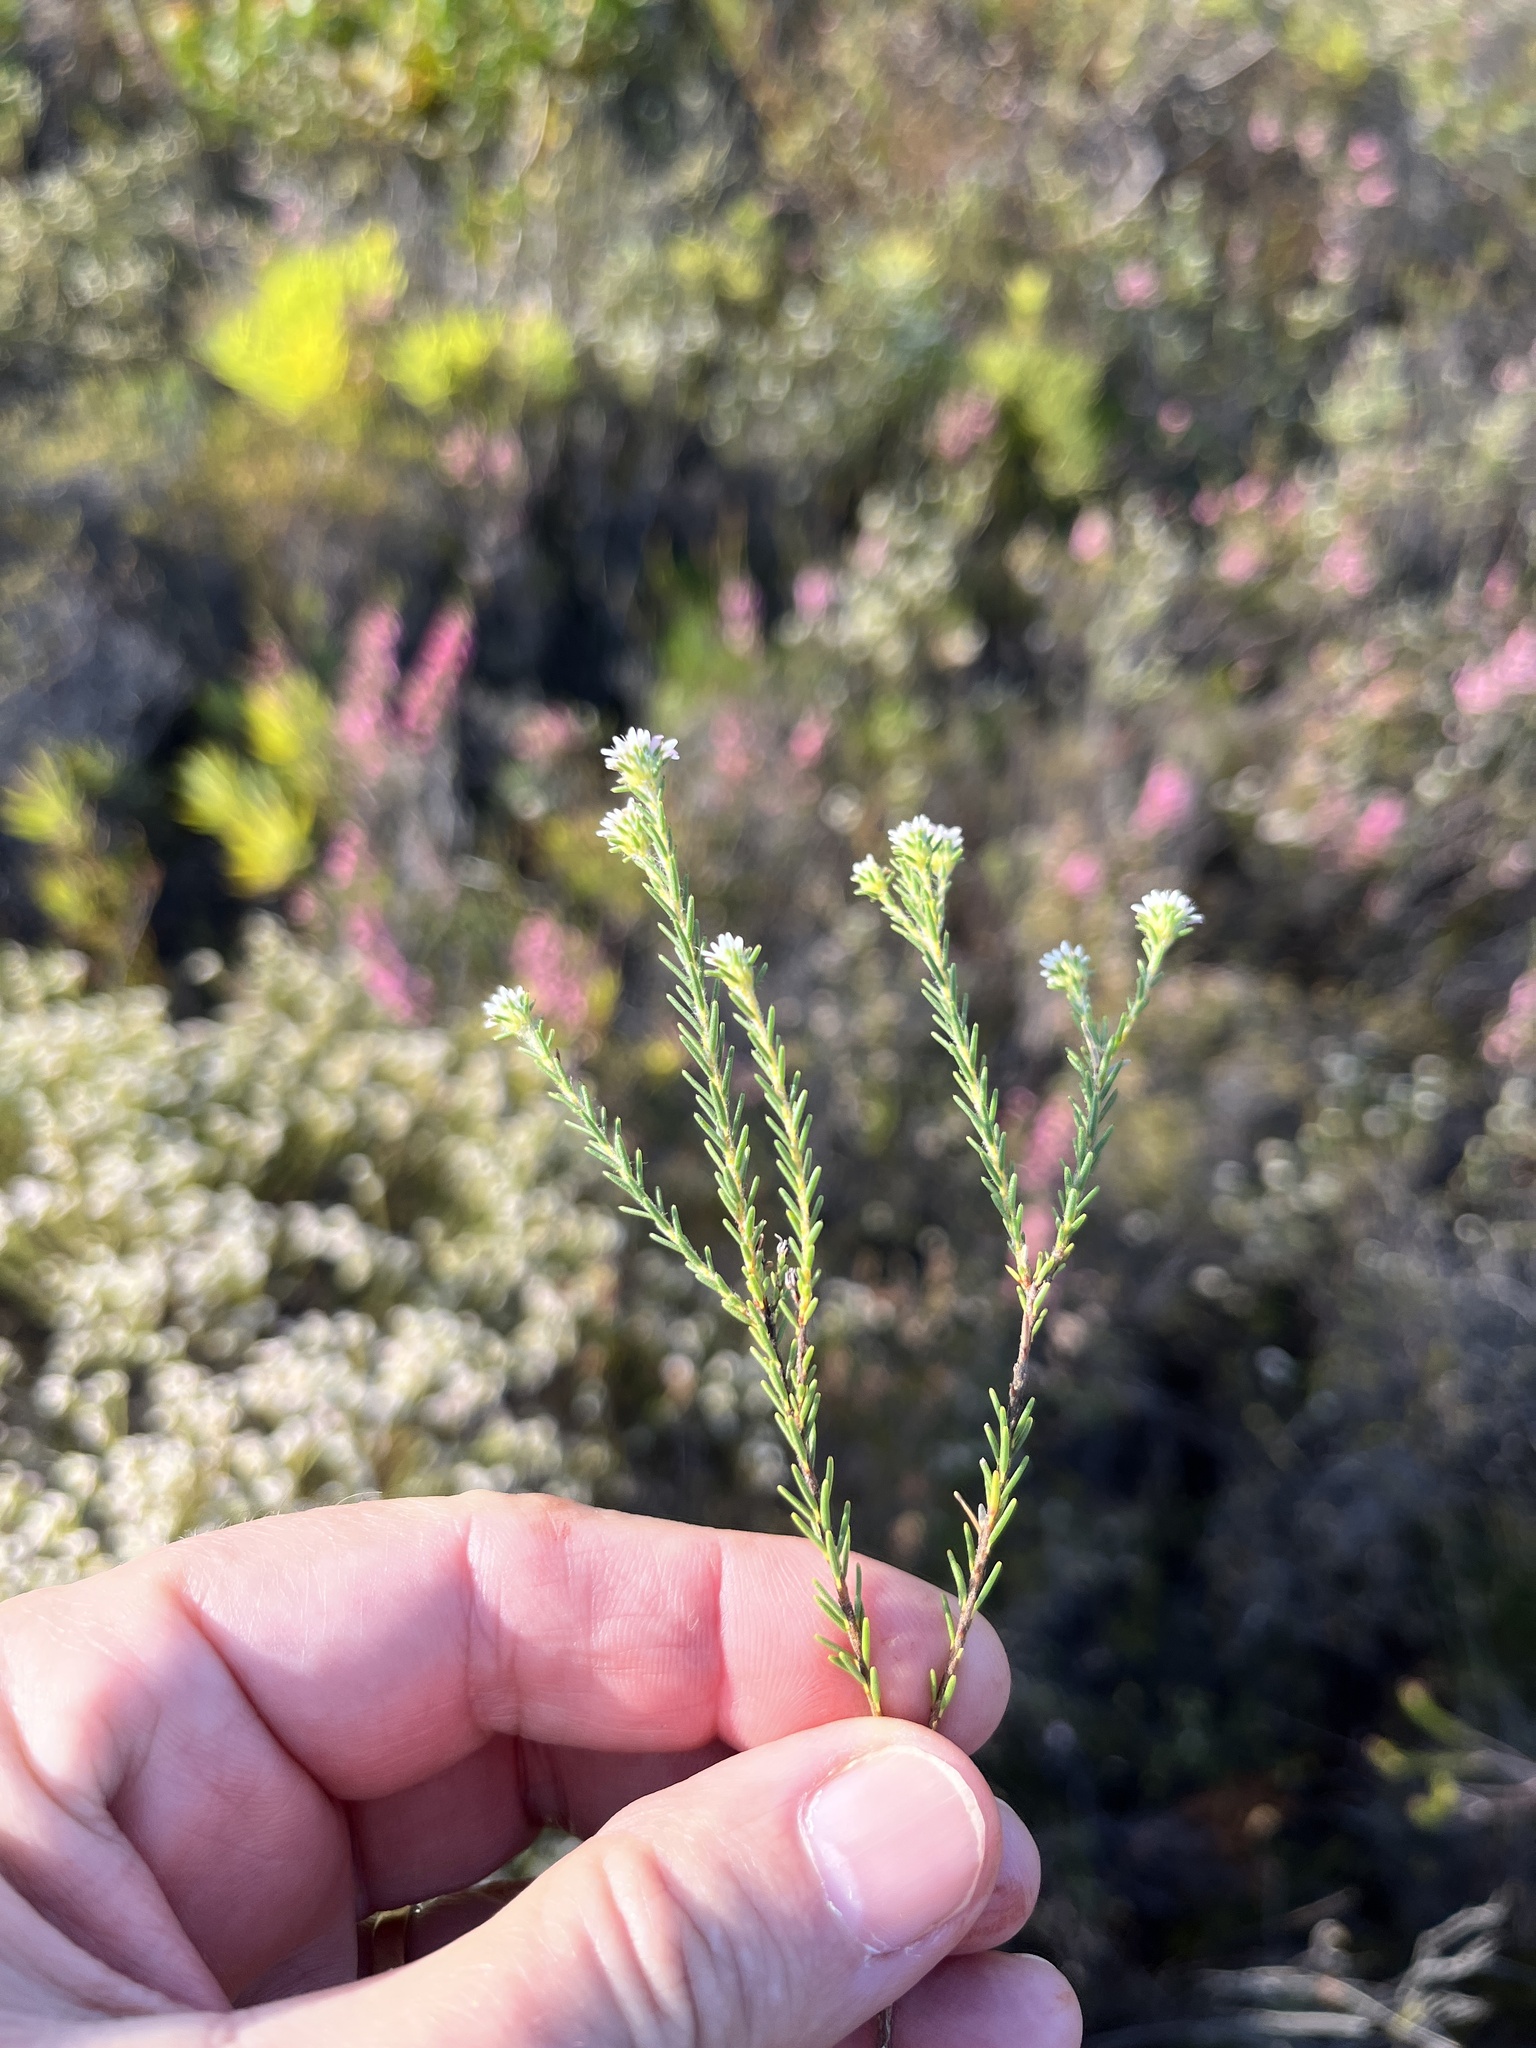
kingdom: Plantae
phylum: Tracheophyta
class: Magnoliopsida
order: Bruniales
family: Bruniaceae
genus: Staavia
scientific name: Staavia radiata
